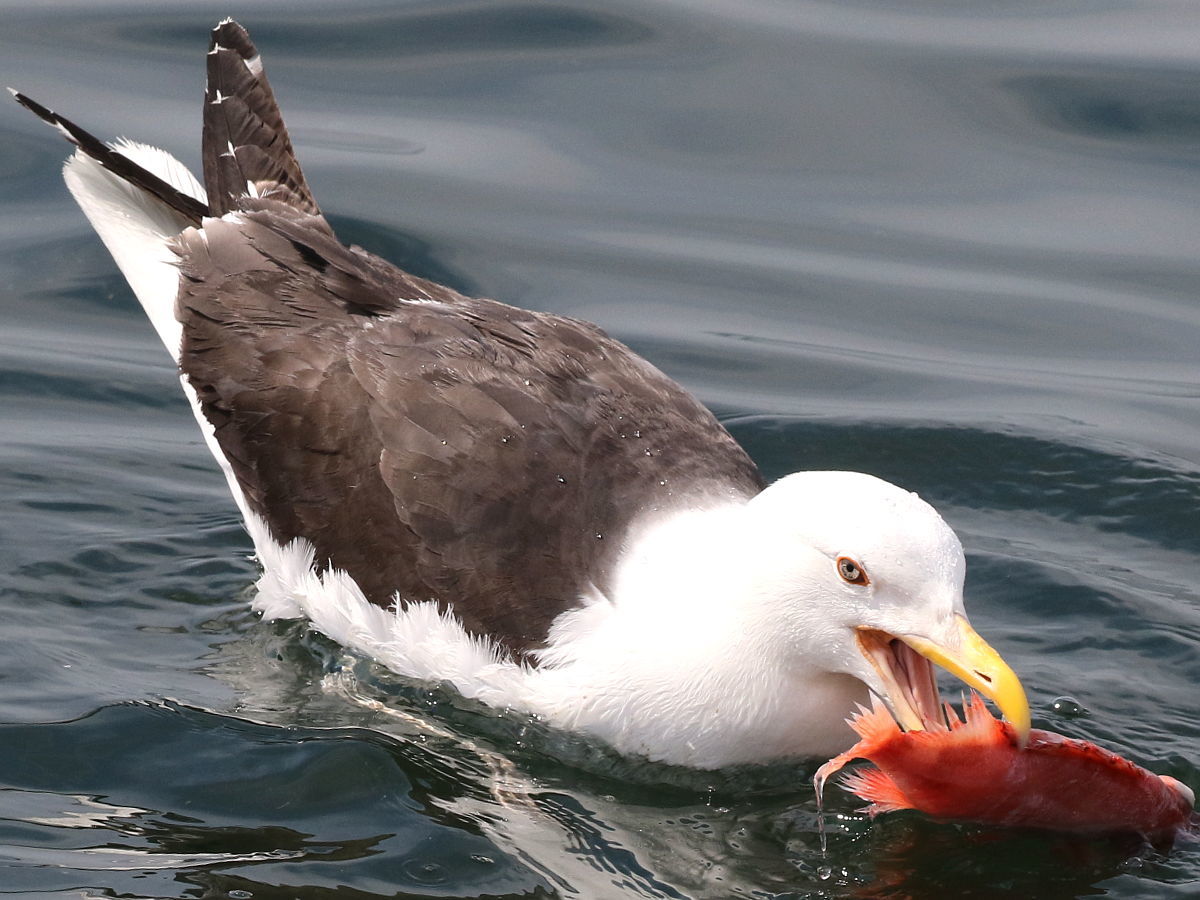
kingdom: Animalia
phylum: Chordata
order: Scorpaeniformes
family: Sebastidae
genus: Sebastes
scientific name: Sebastes fasciatus
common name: Redfish
